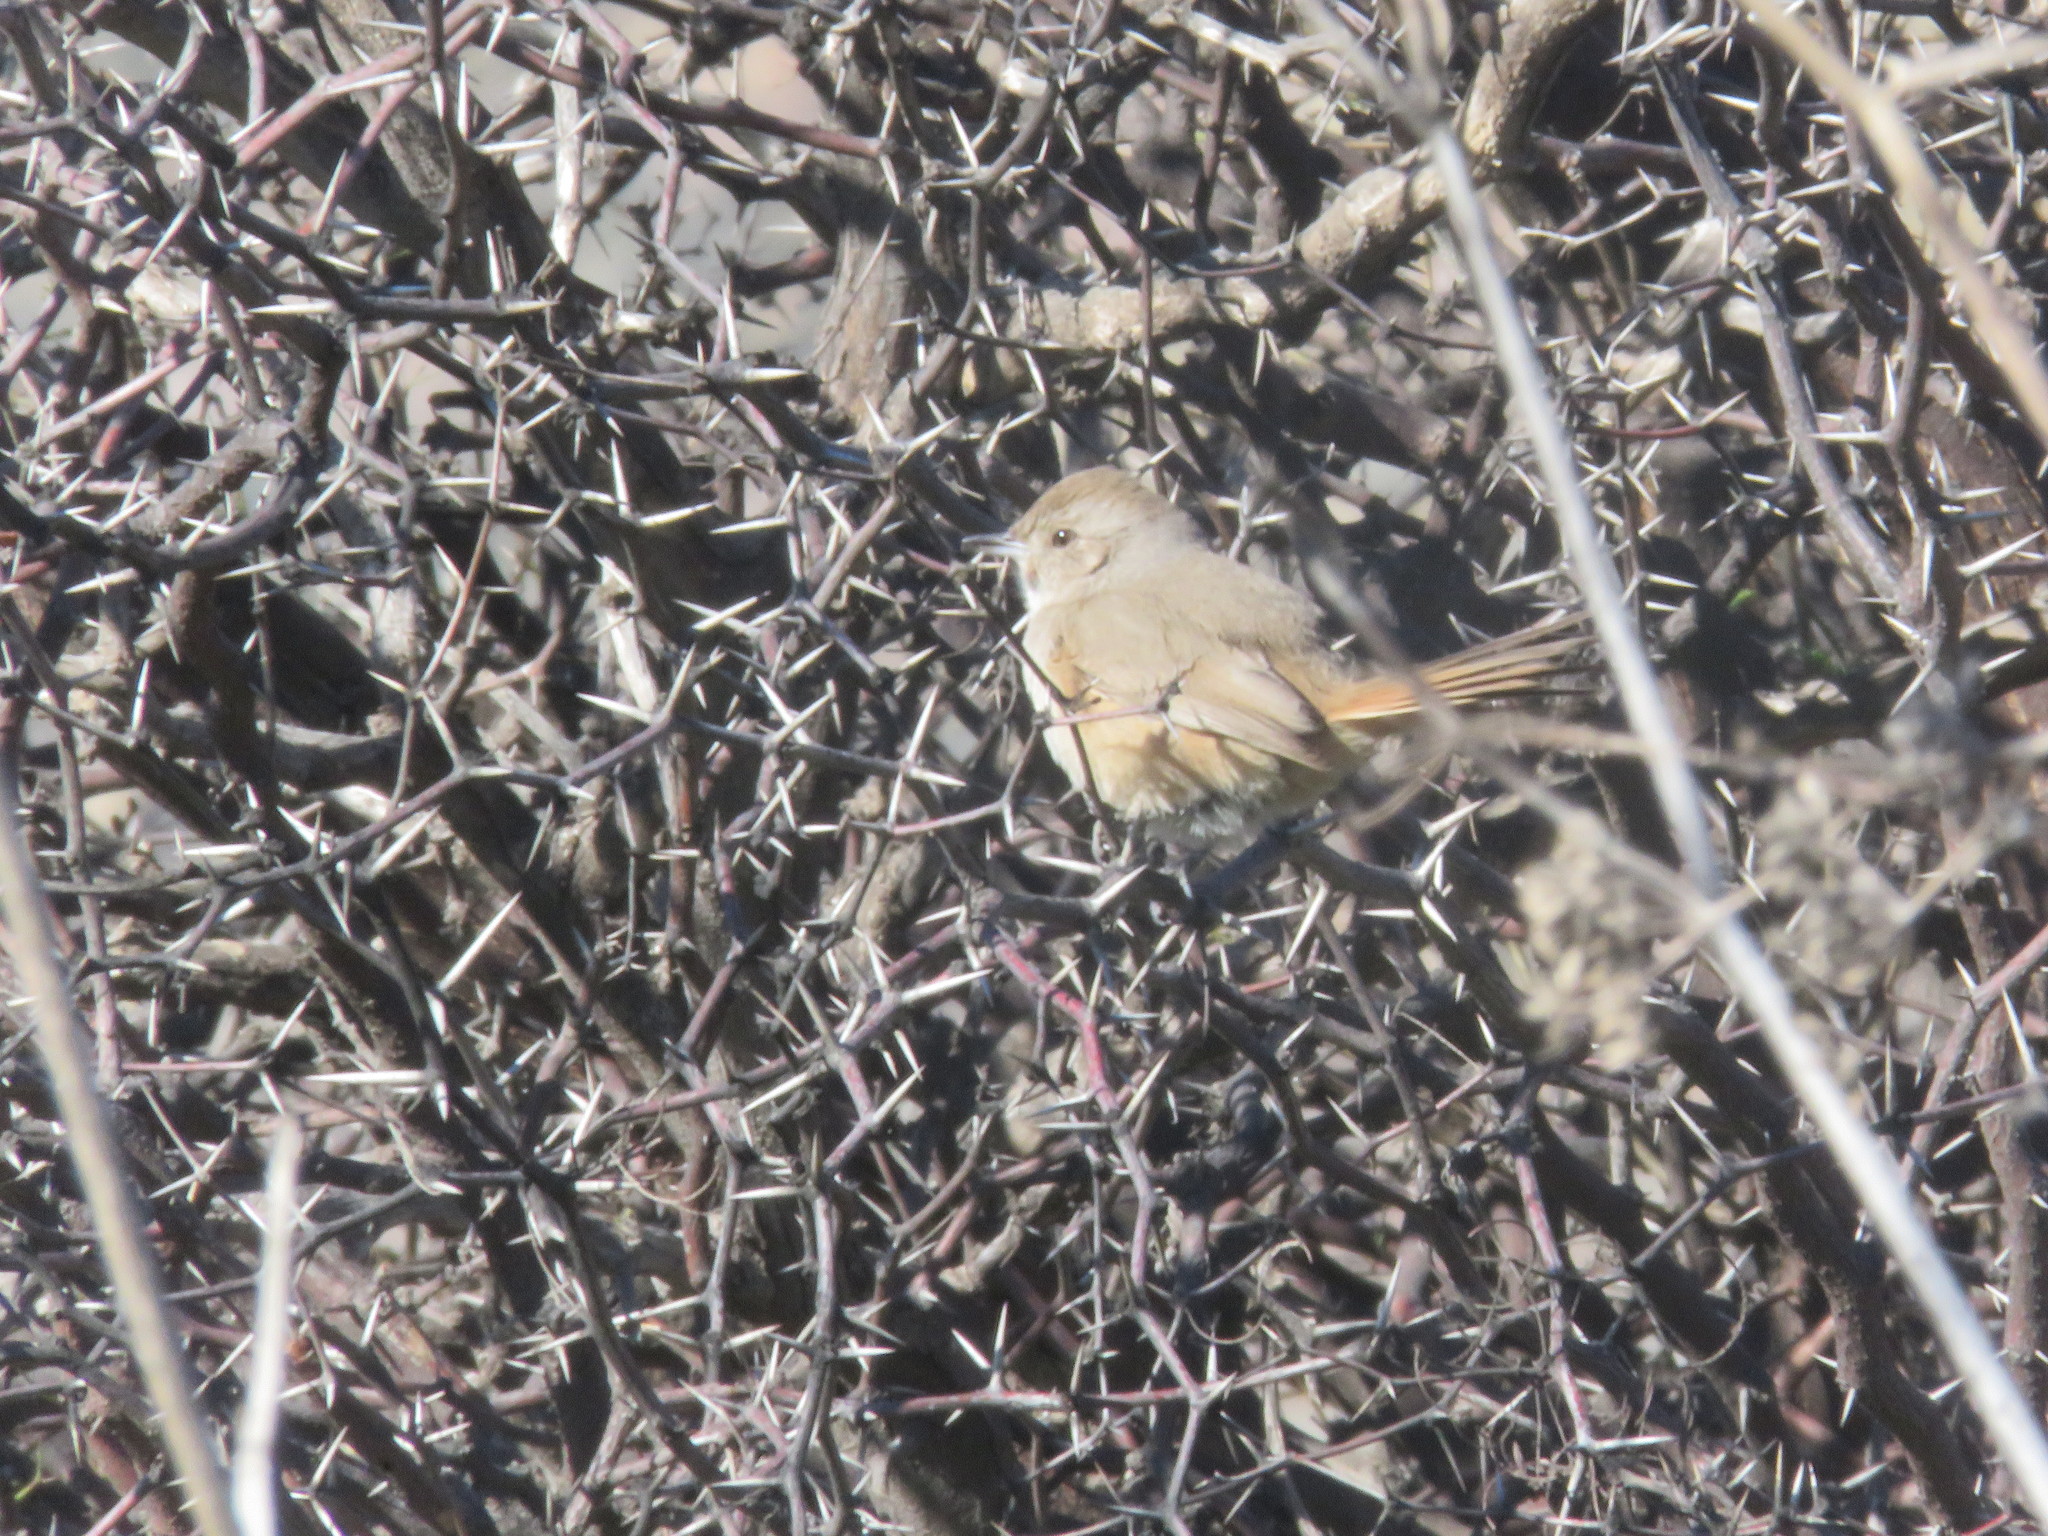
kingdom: Animalia
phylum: Chordata
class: Aves
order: Passeriformes
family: Furnariidae
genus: Asthenes
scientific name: Asthenes baeri
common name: Short-billed canastero
